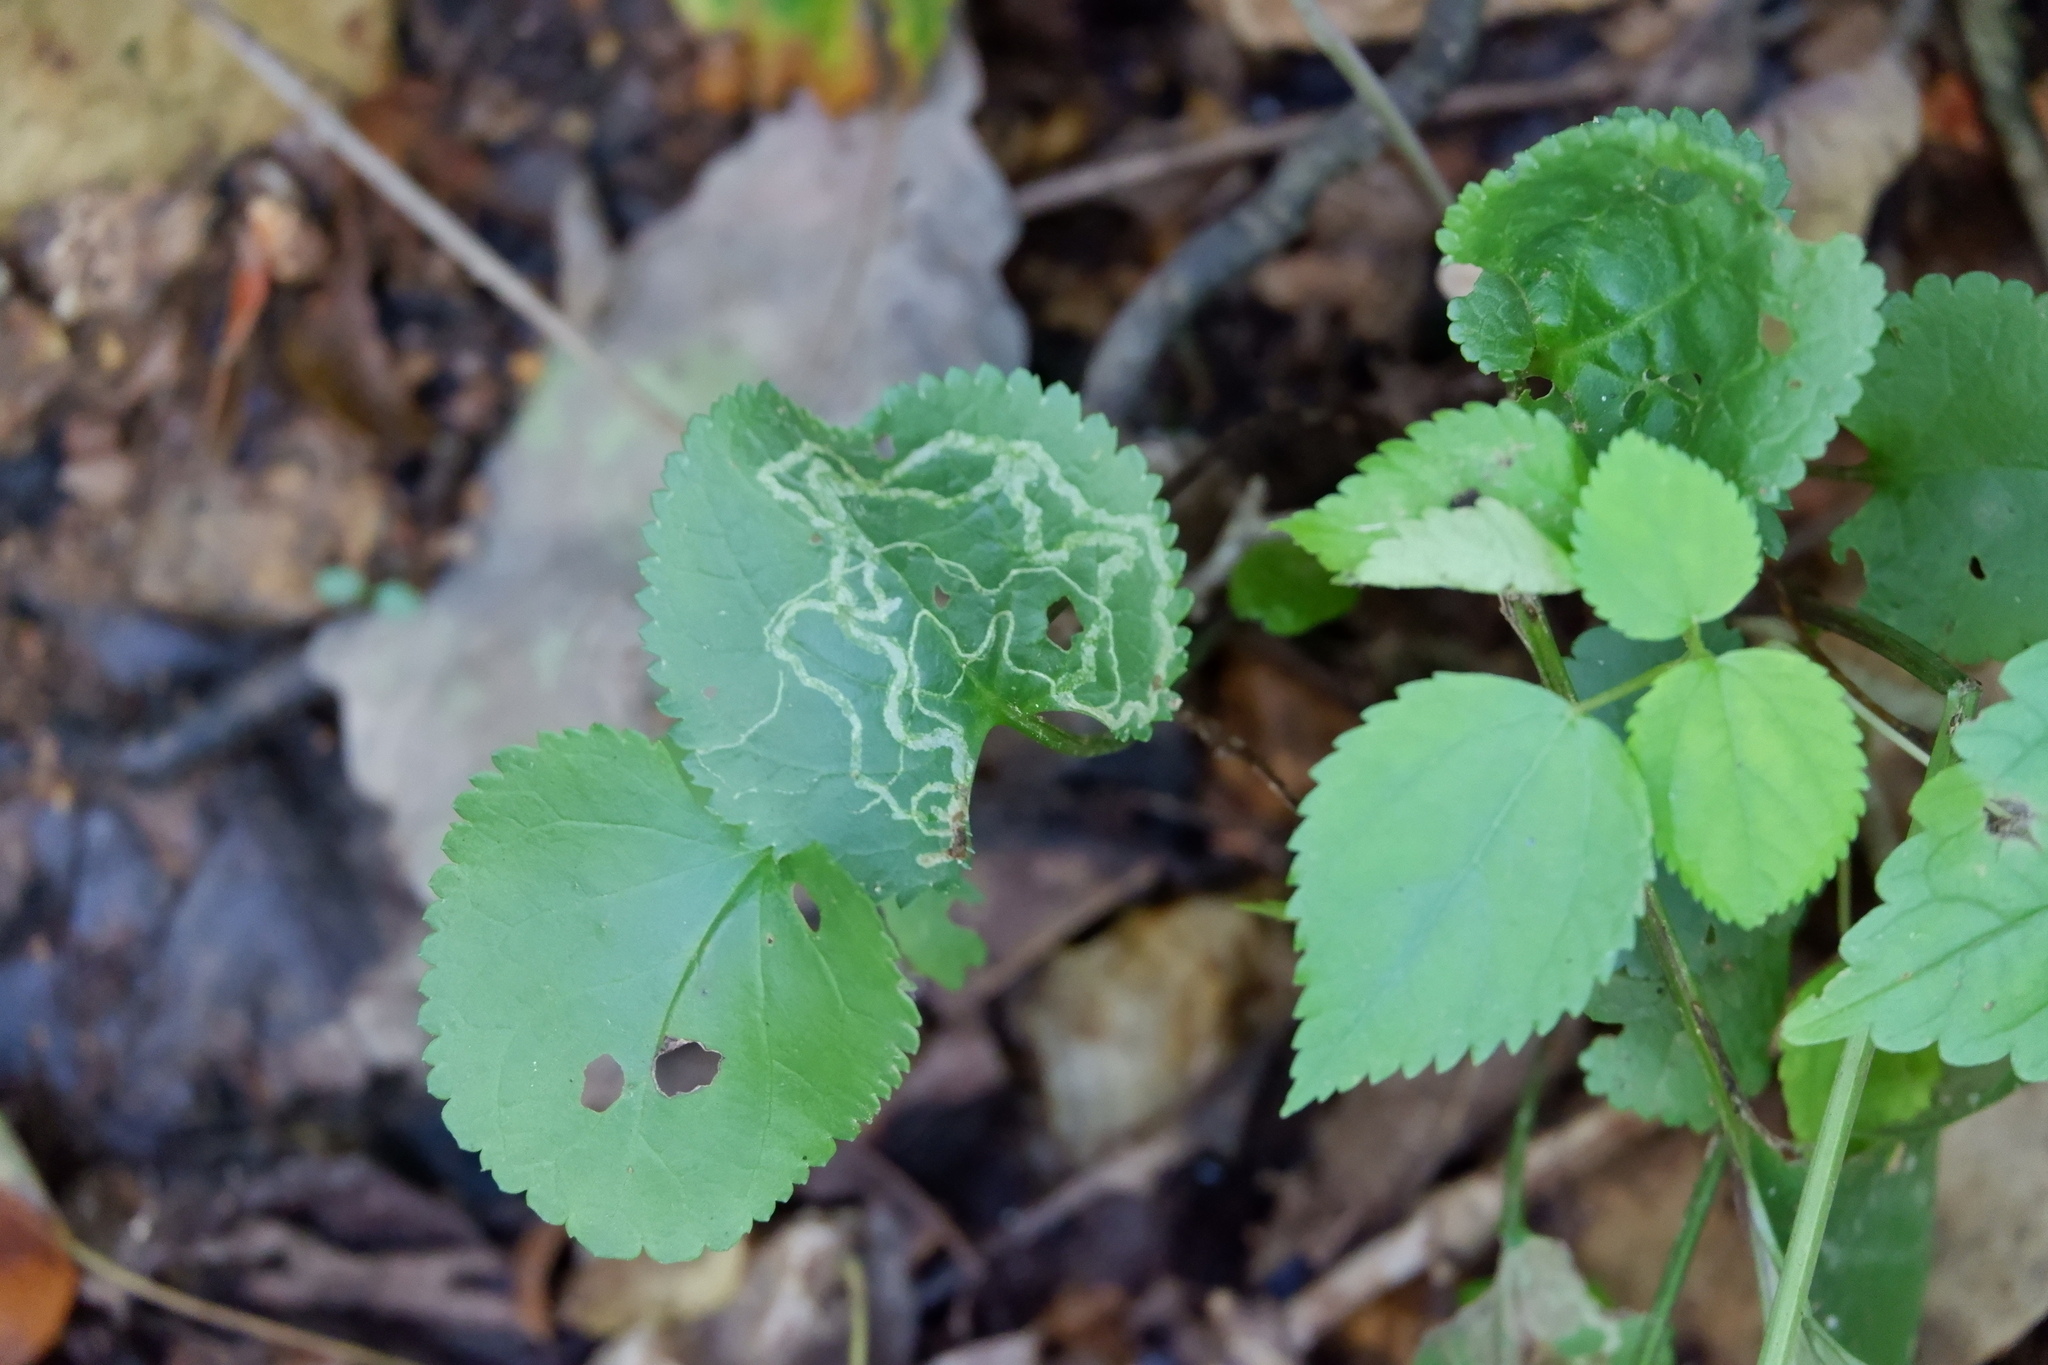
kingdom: Animalia
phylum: Arthropoda
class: Insecta
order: Lepidoptera
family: Gracillariidae
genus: Phyllocnistis
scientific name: Phyllocnistis insignis
